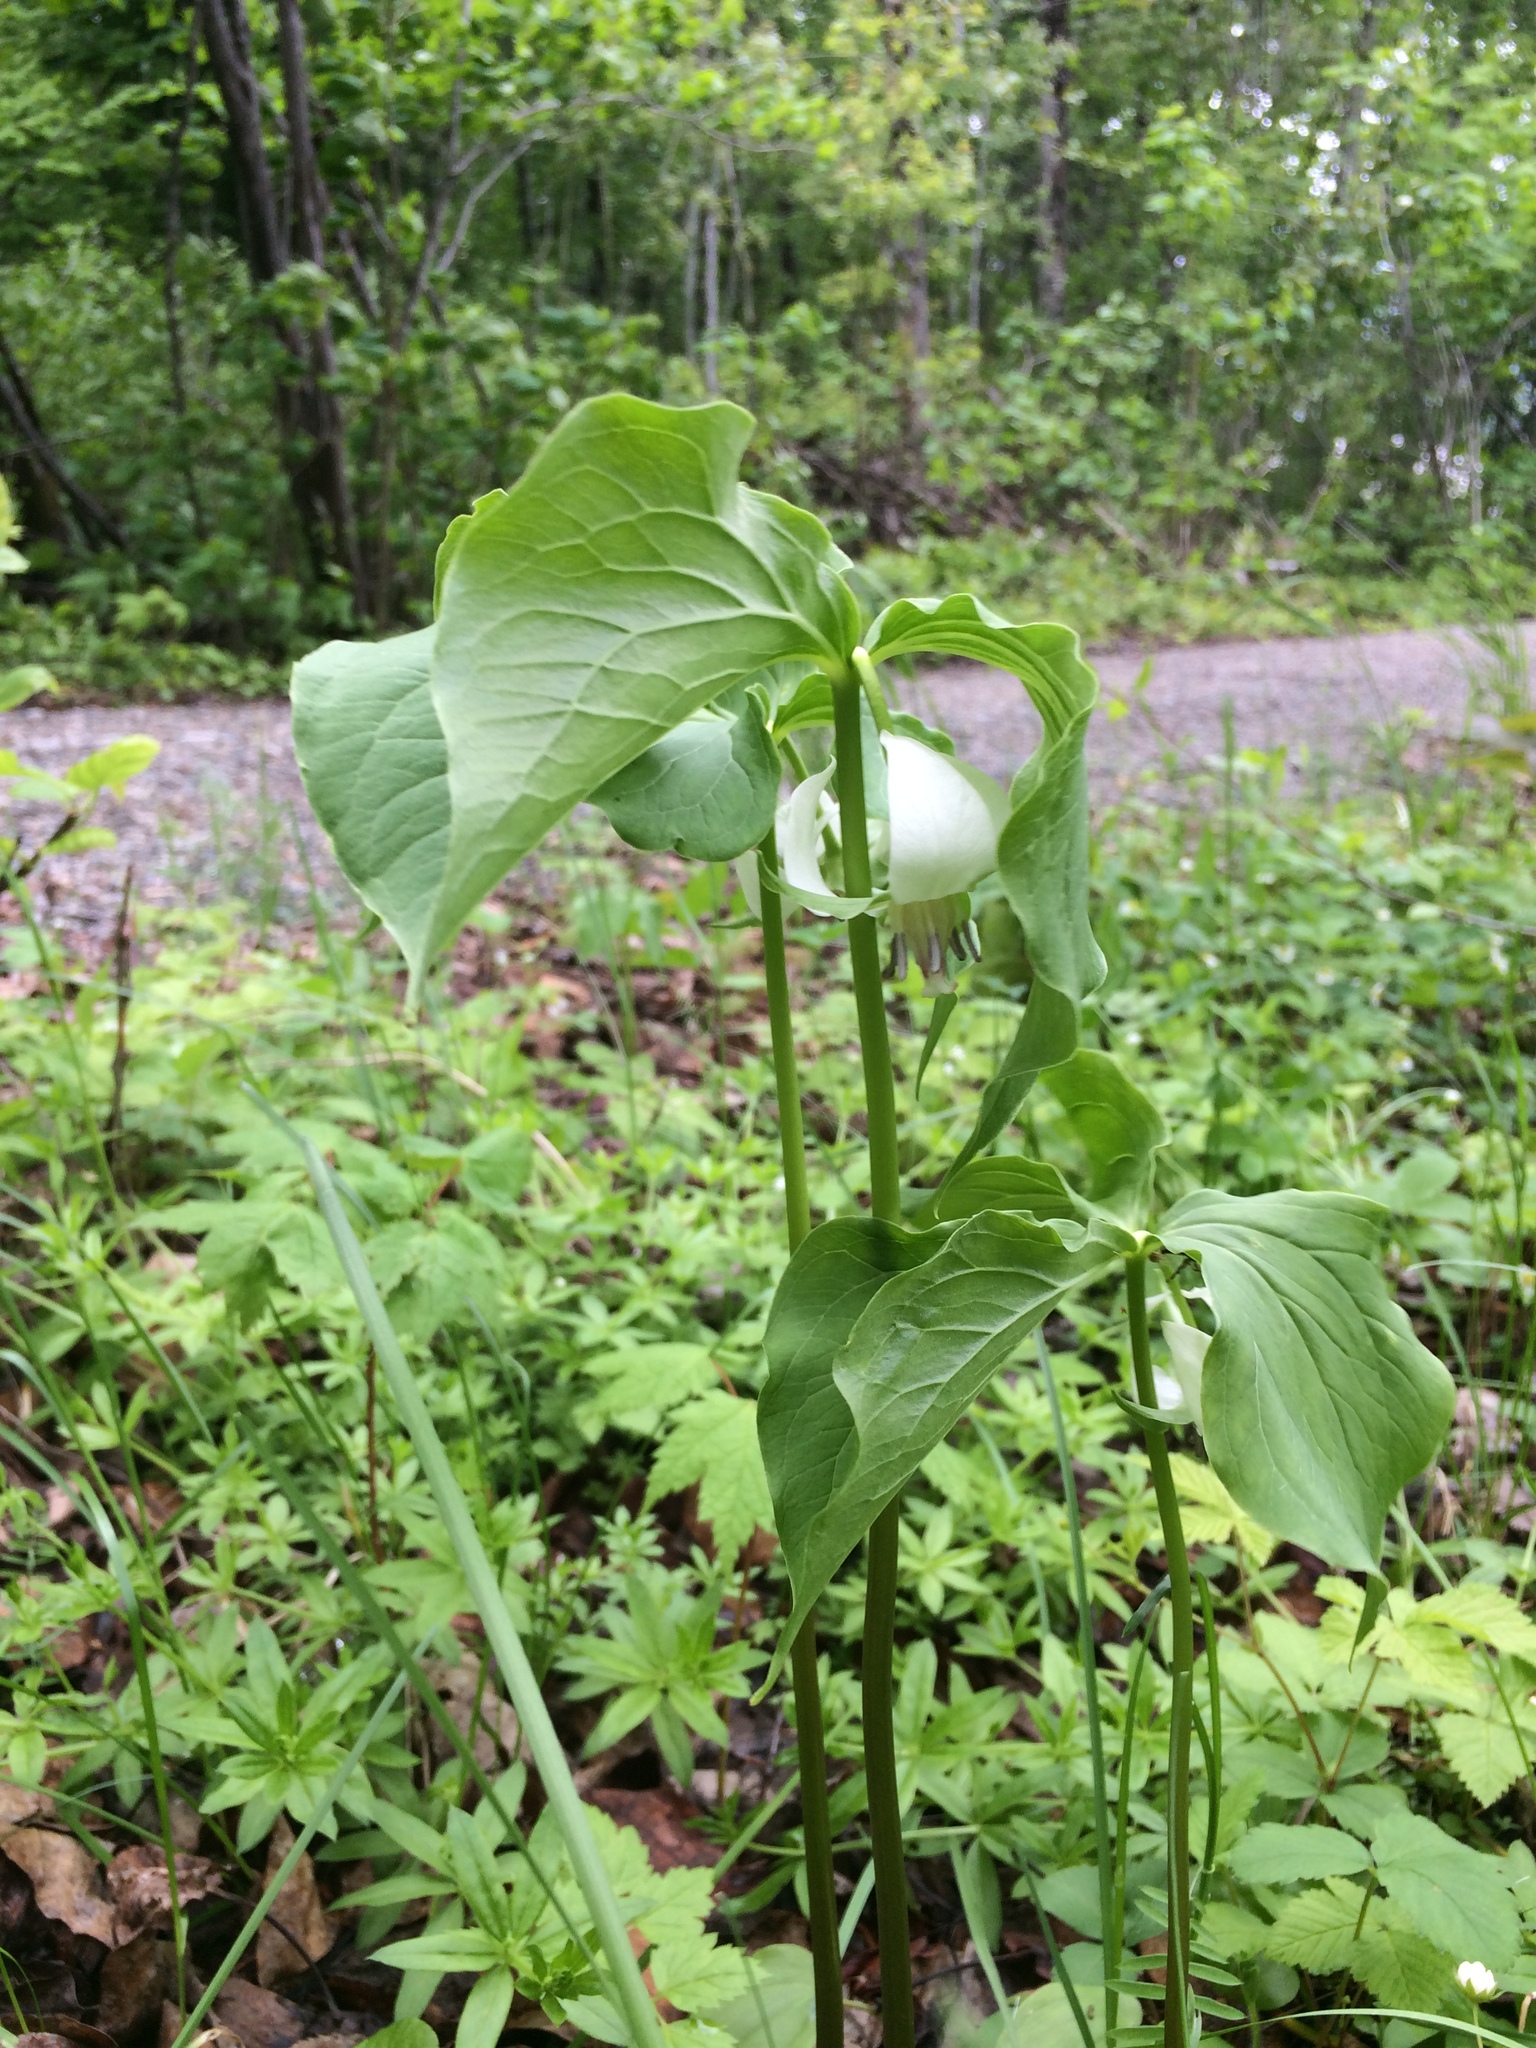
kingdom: Plantae
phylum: Tracheophyta
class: Liliopsida
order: Liliales
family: Melanthiaceae
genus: Trillium
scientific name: Trillium cernuum
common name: Nodding trillium
